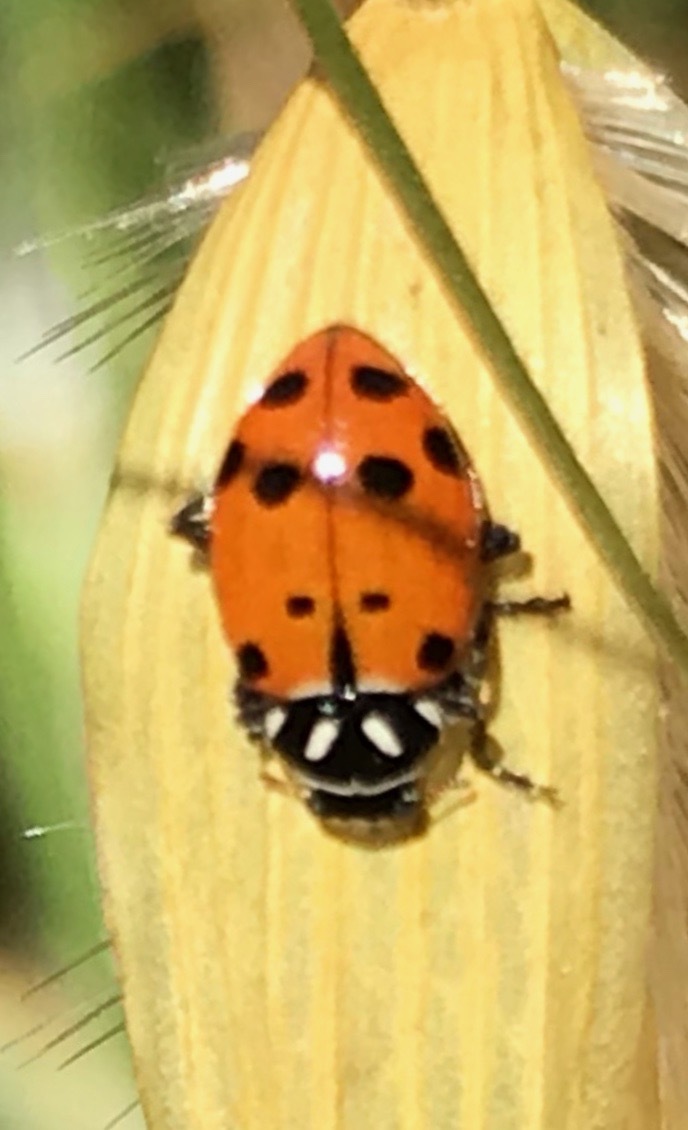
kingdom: Animalia
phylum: Arthropoda
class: Insecta
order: Coleoptera
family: Coccinellidae
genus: Hippodamia
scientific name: Hippodamia convergens
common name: Convergent lady beetle
